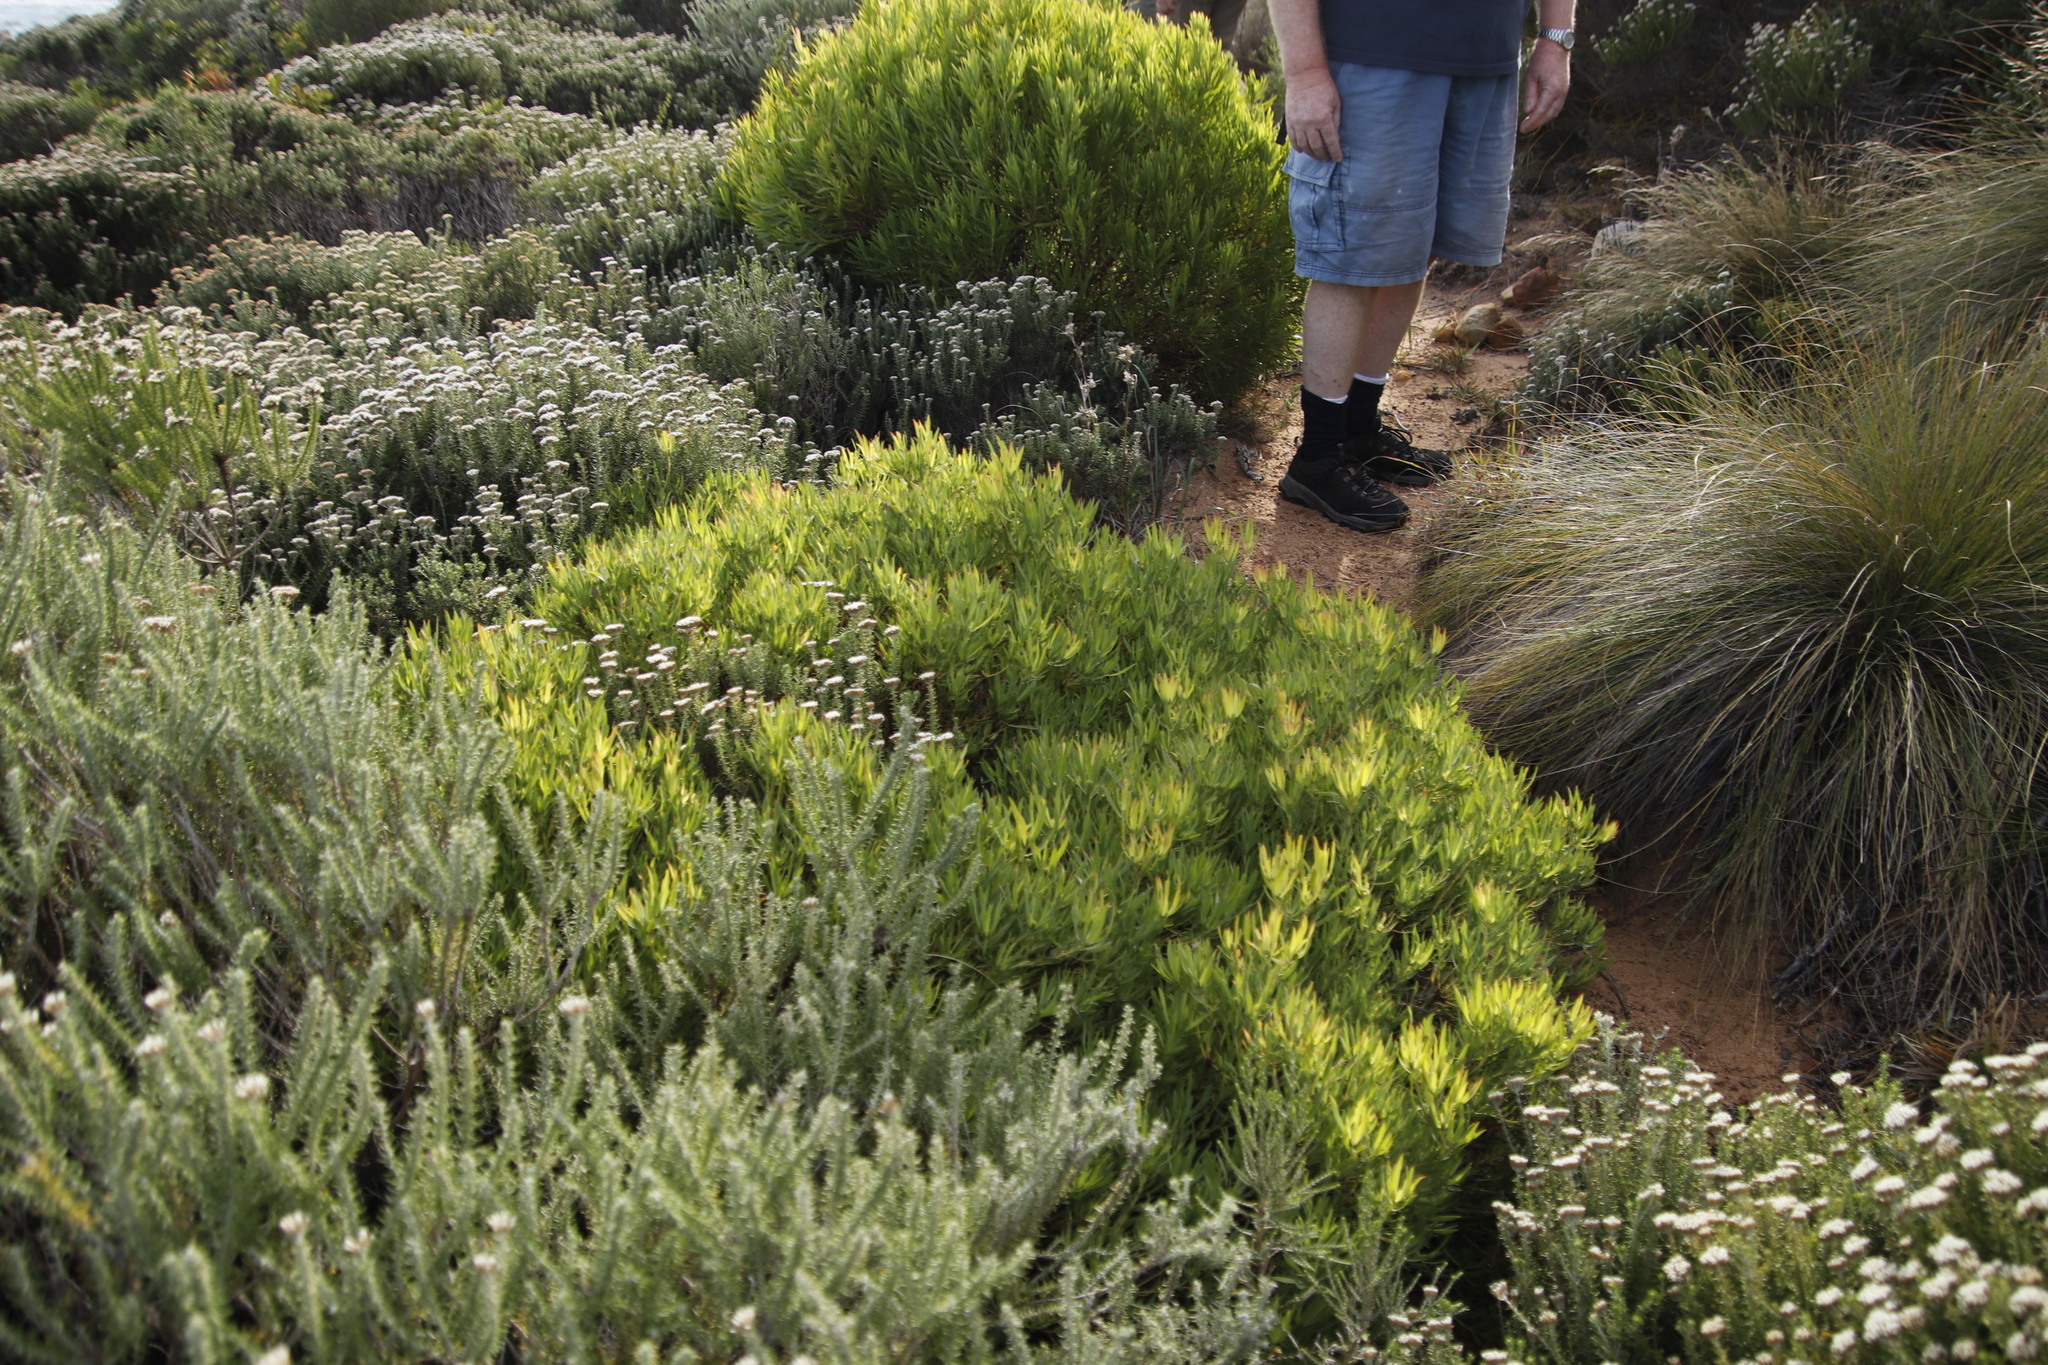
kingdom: Plantae
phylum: Tracheophyta
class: Magnoliopsida
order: Proteales
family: Proteaceae
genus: Leucadendron
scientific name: Leucadendron salignum
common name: Common sunshine conebush
